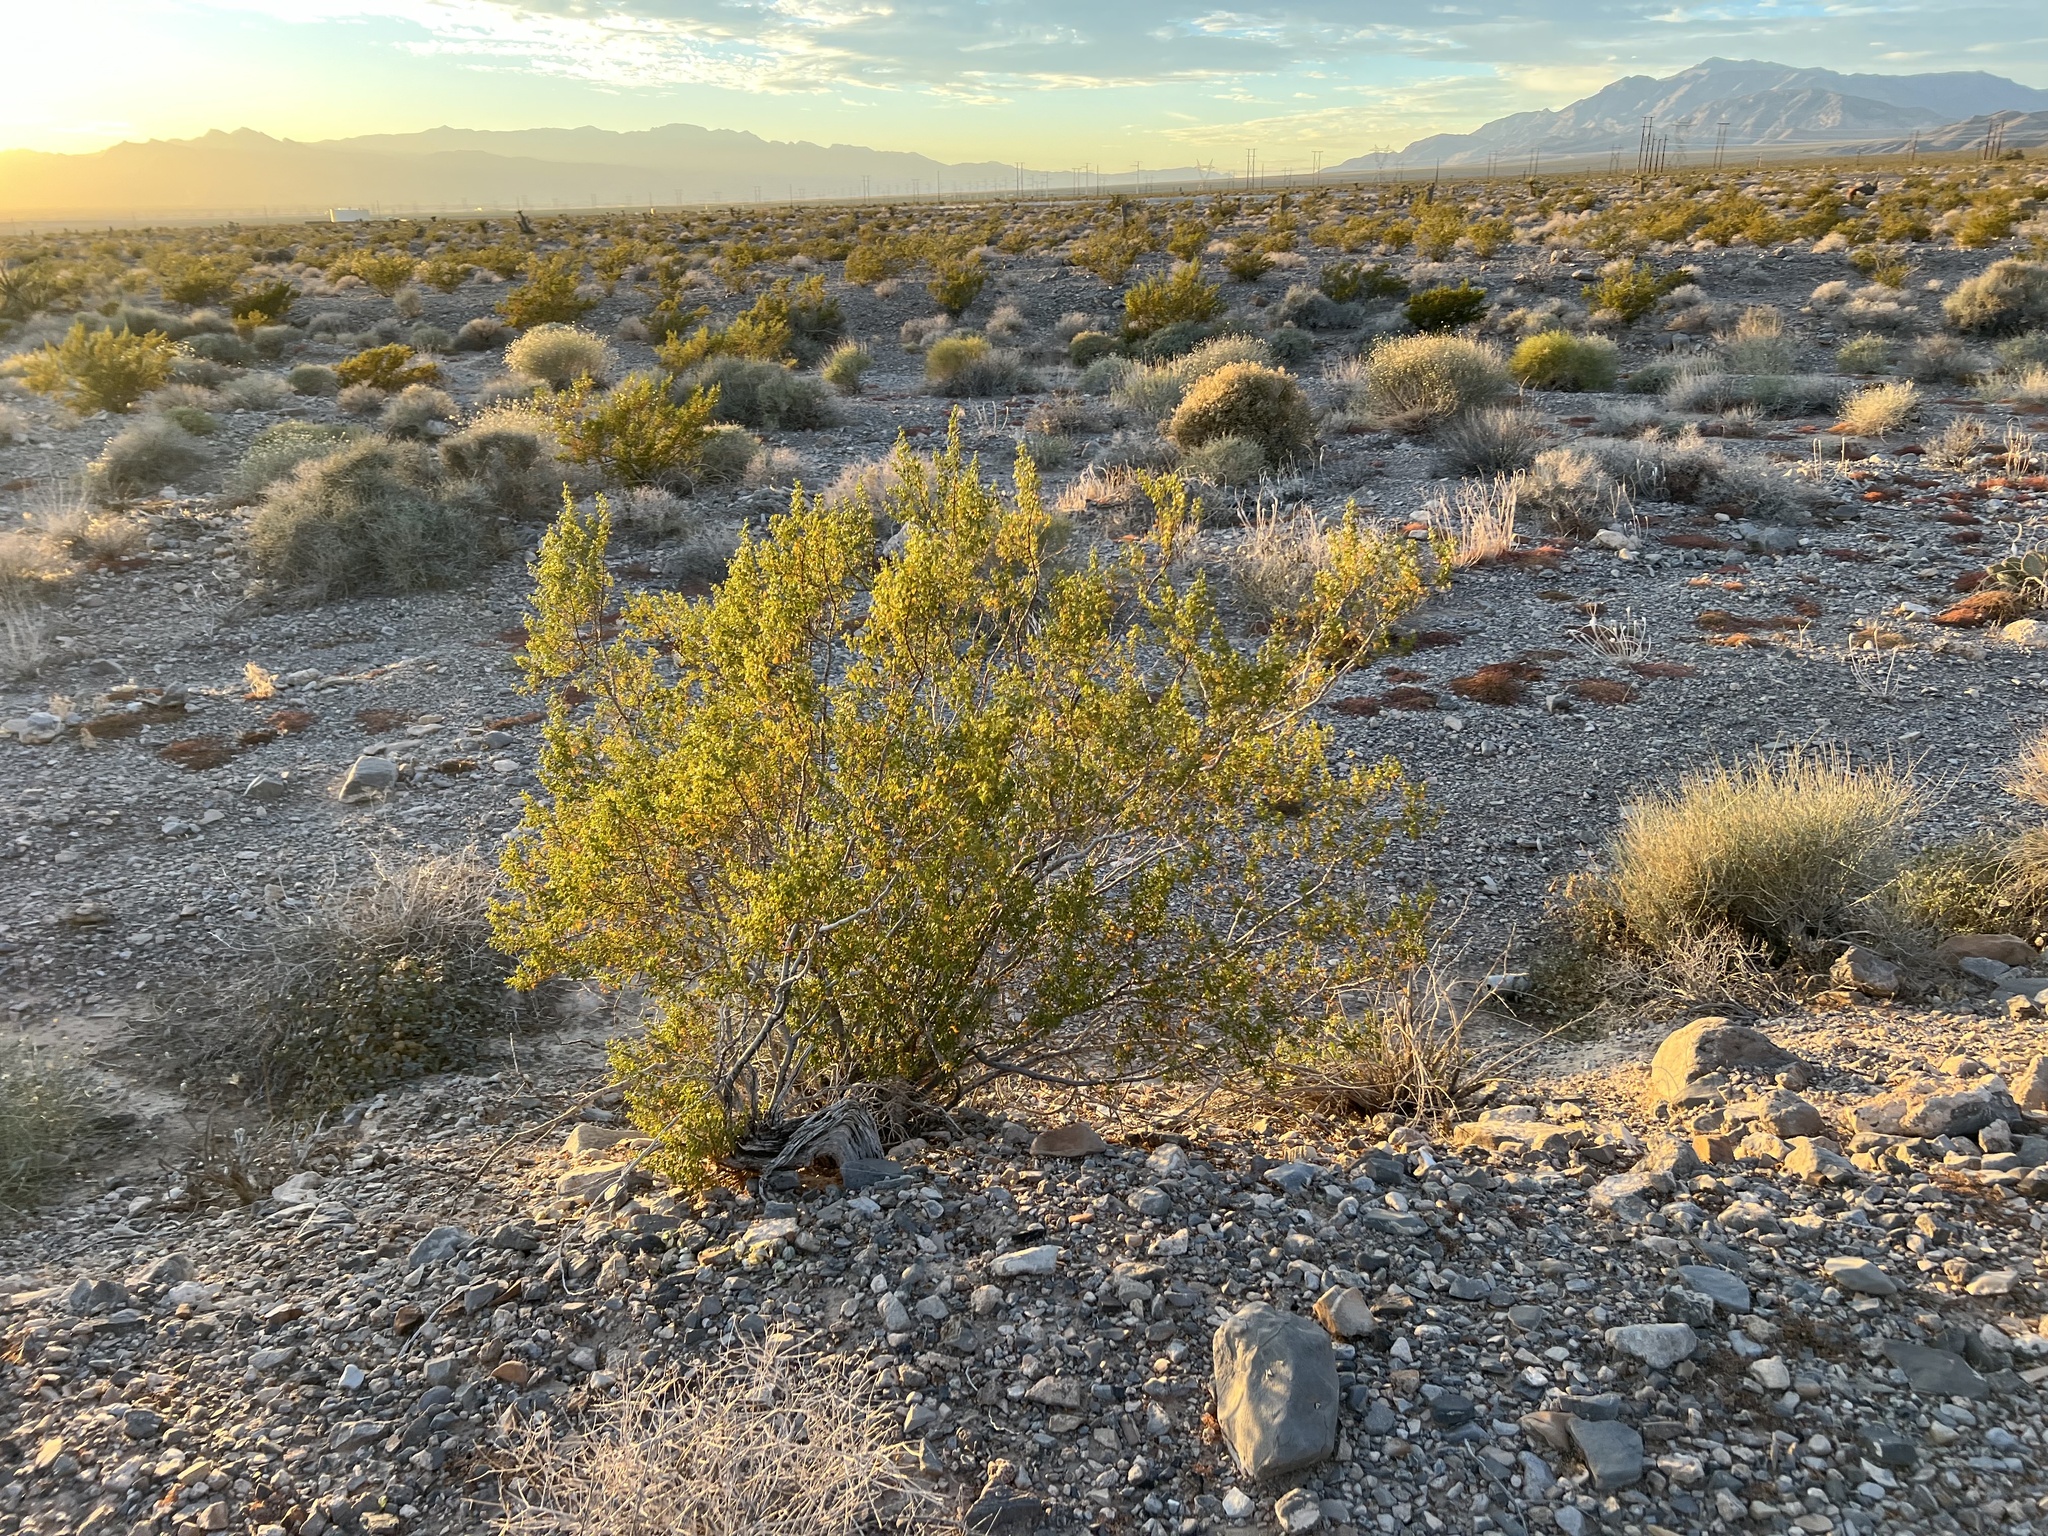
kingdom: Plantae
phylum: Tracheophyta
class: Magnoliopsida
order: Zygophyllales
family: Zygophyllaceae
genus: Larrea
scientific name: Larrea tridentata
